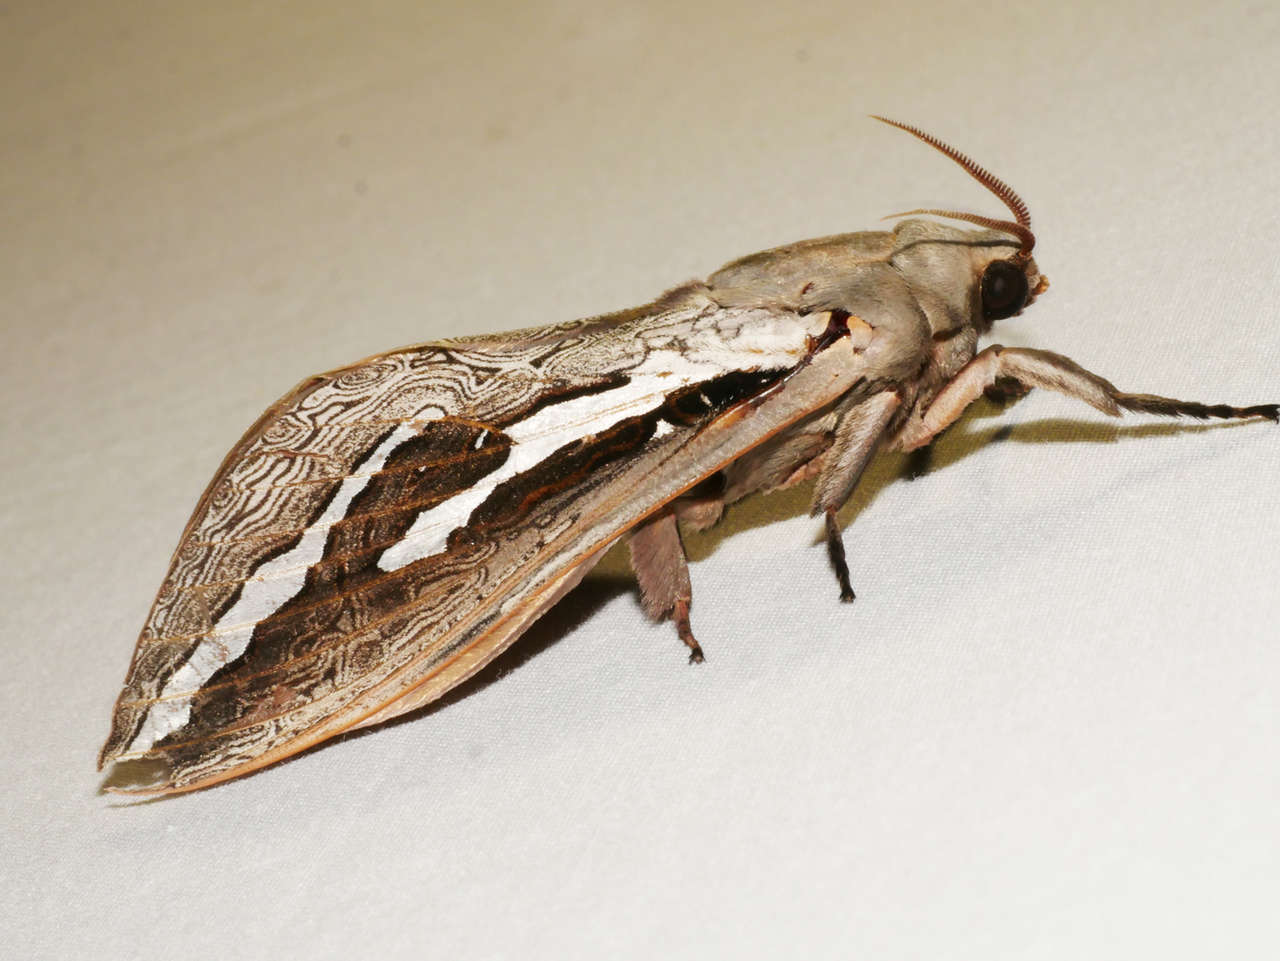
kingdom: Animalia
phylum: Arthropoda
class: Insecta
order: Lepidoptera
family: Hepialidae
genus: Abantiades
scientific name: Abantiades labyrinthicus
